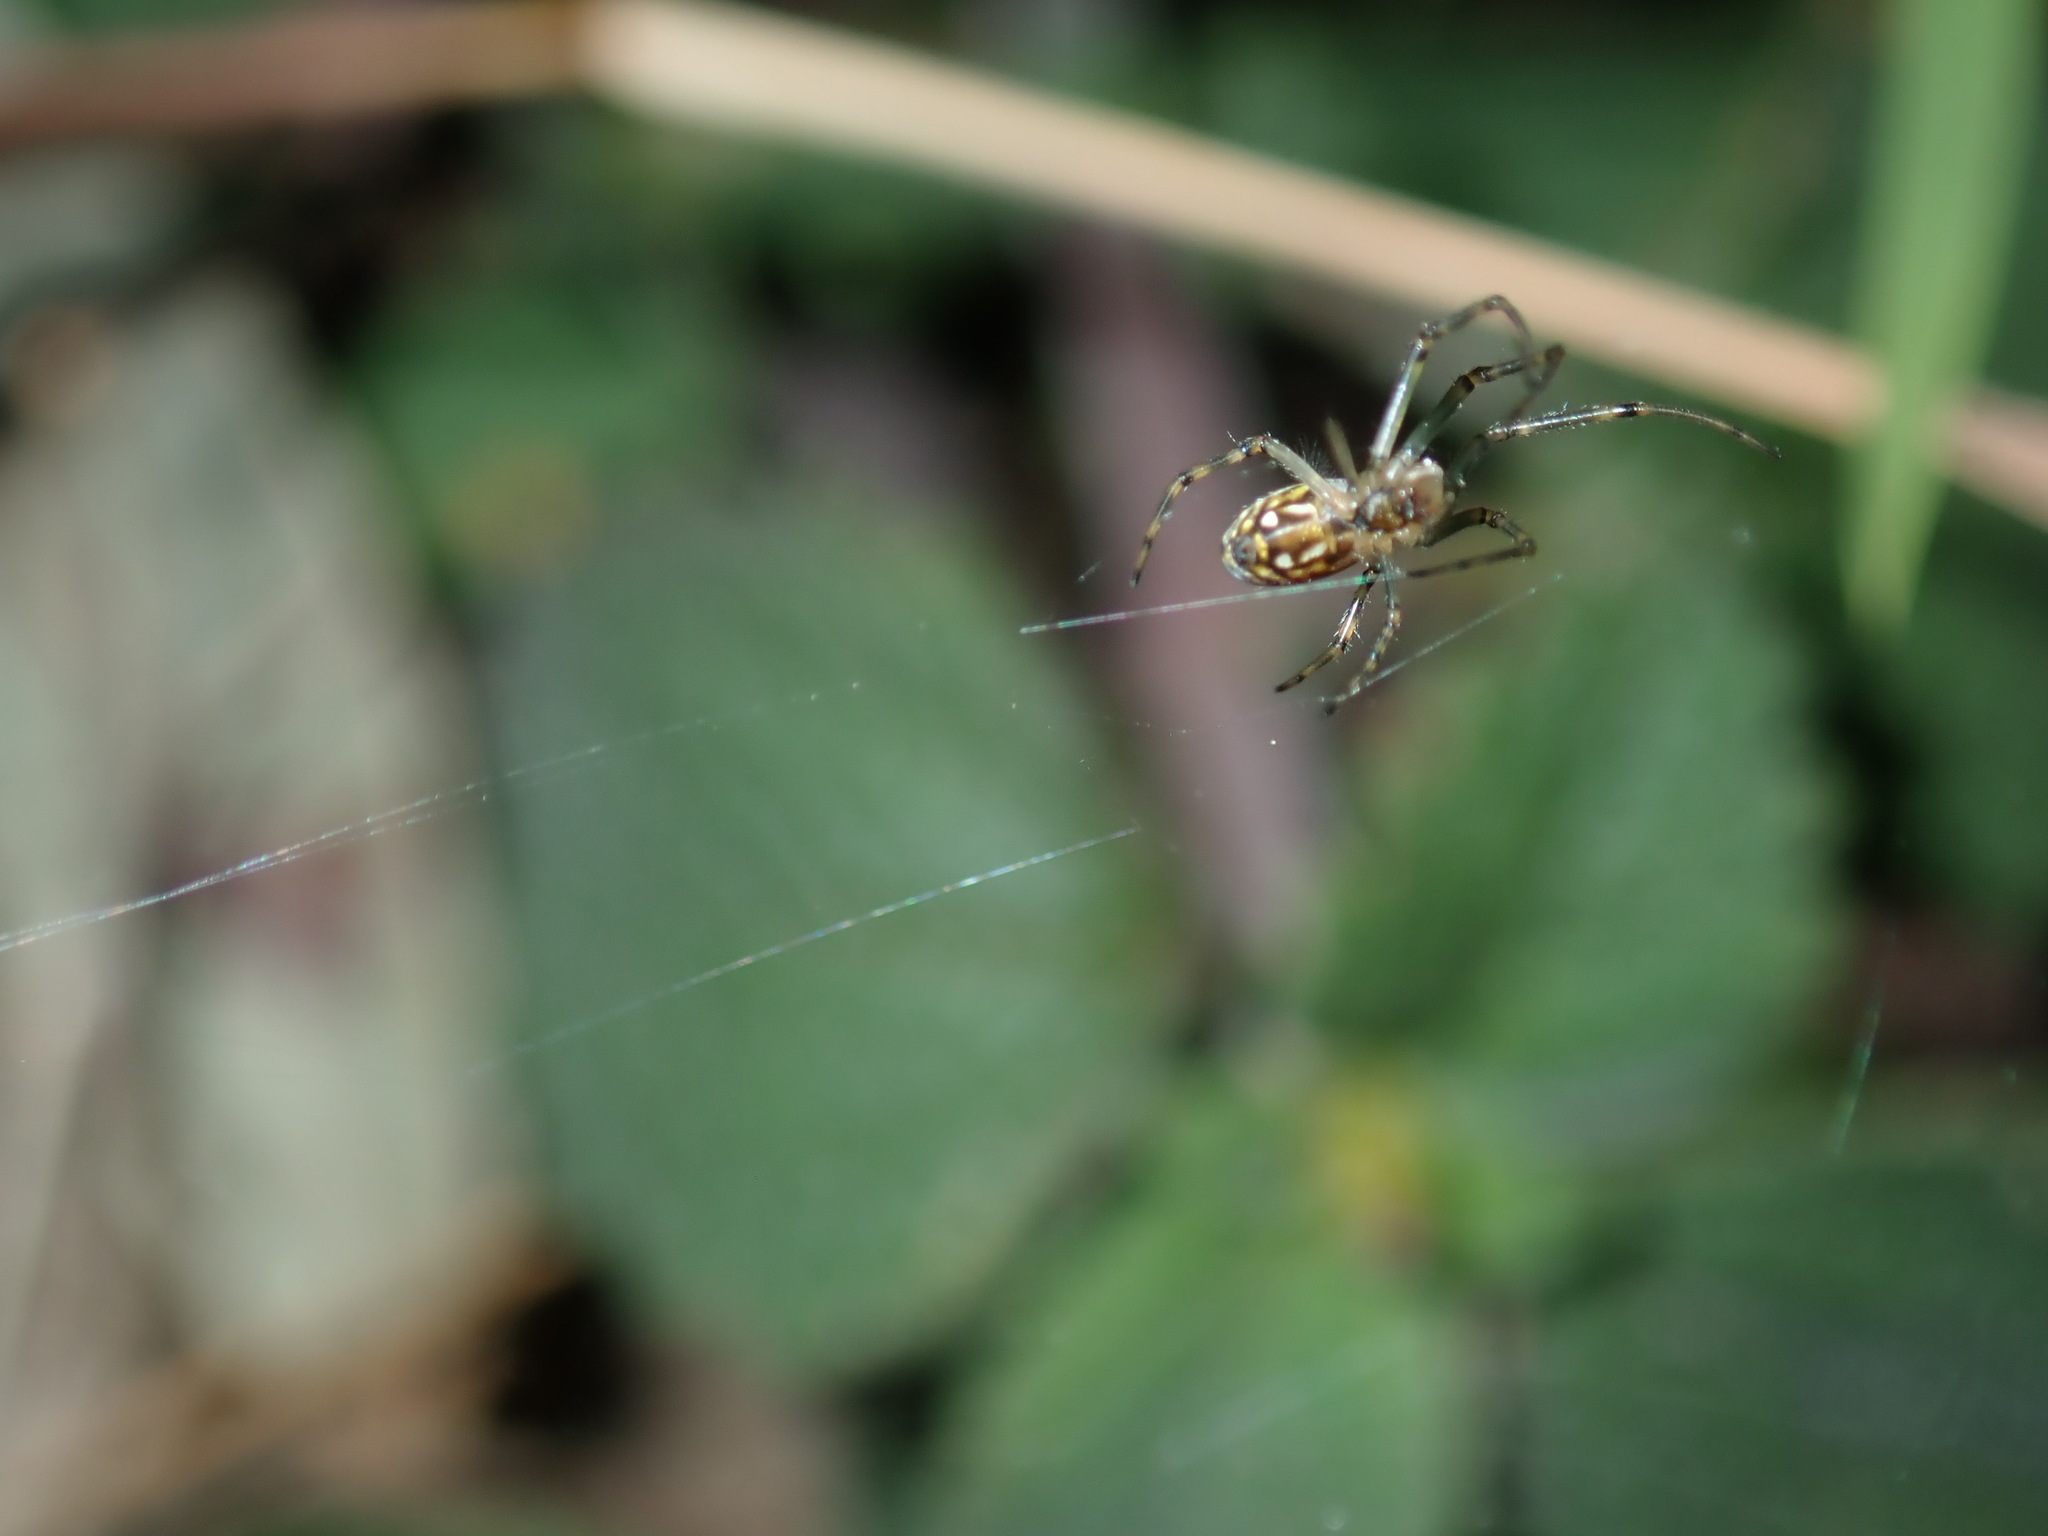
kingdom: Animalia
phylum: Arthropoda
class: Arachnida
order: Araneae
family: Tetragnathidae
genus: Leucauge
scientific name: Leucauge dromedaria
